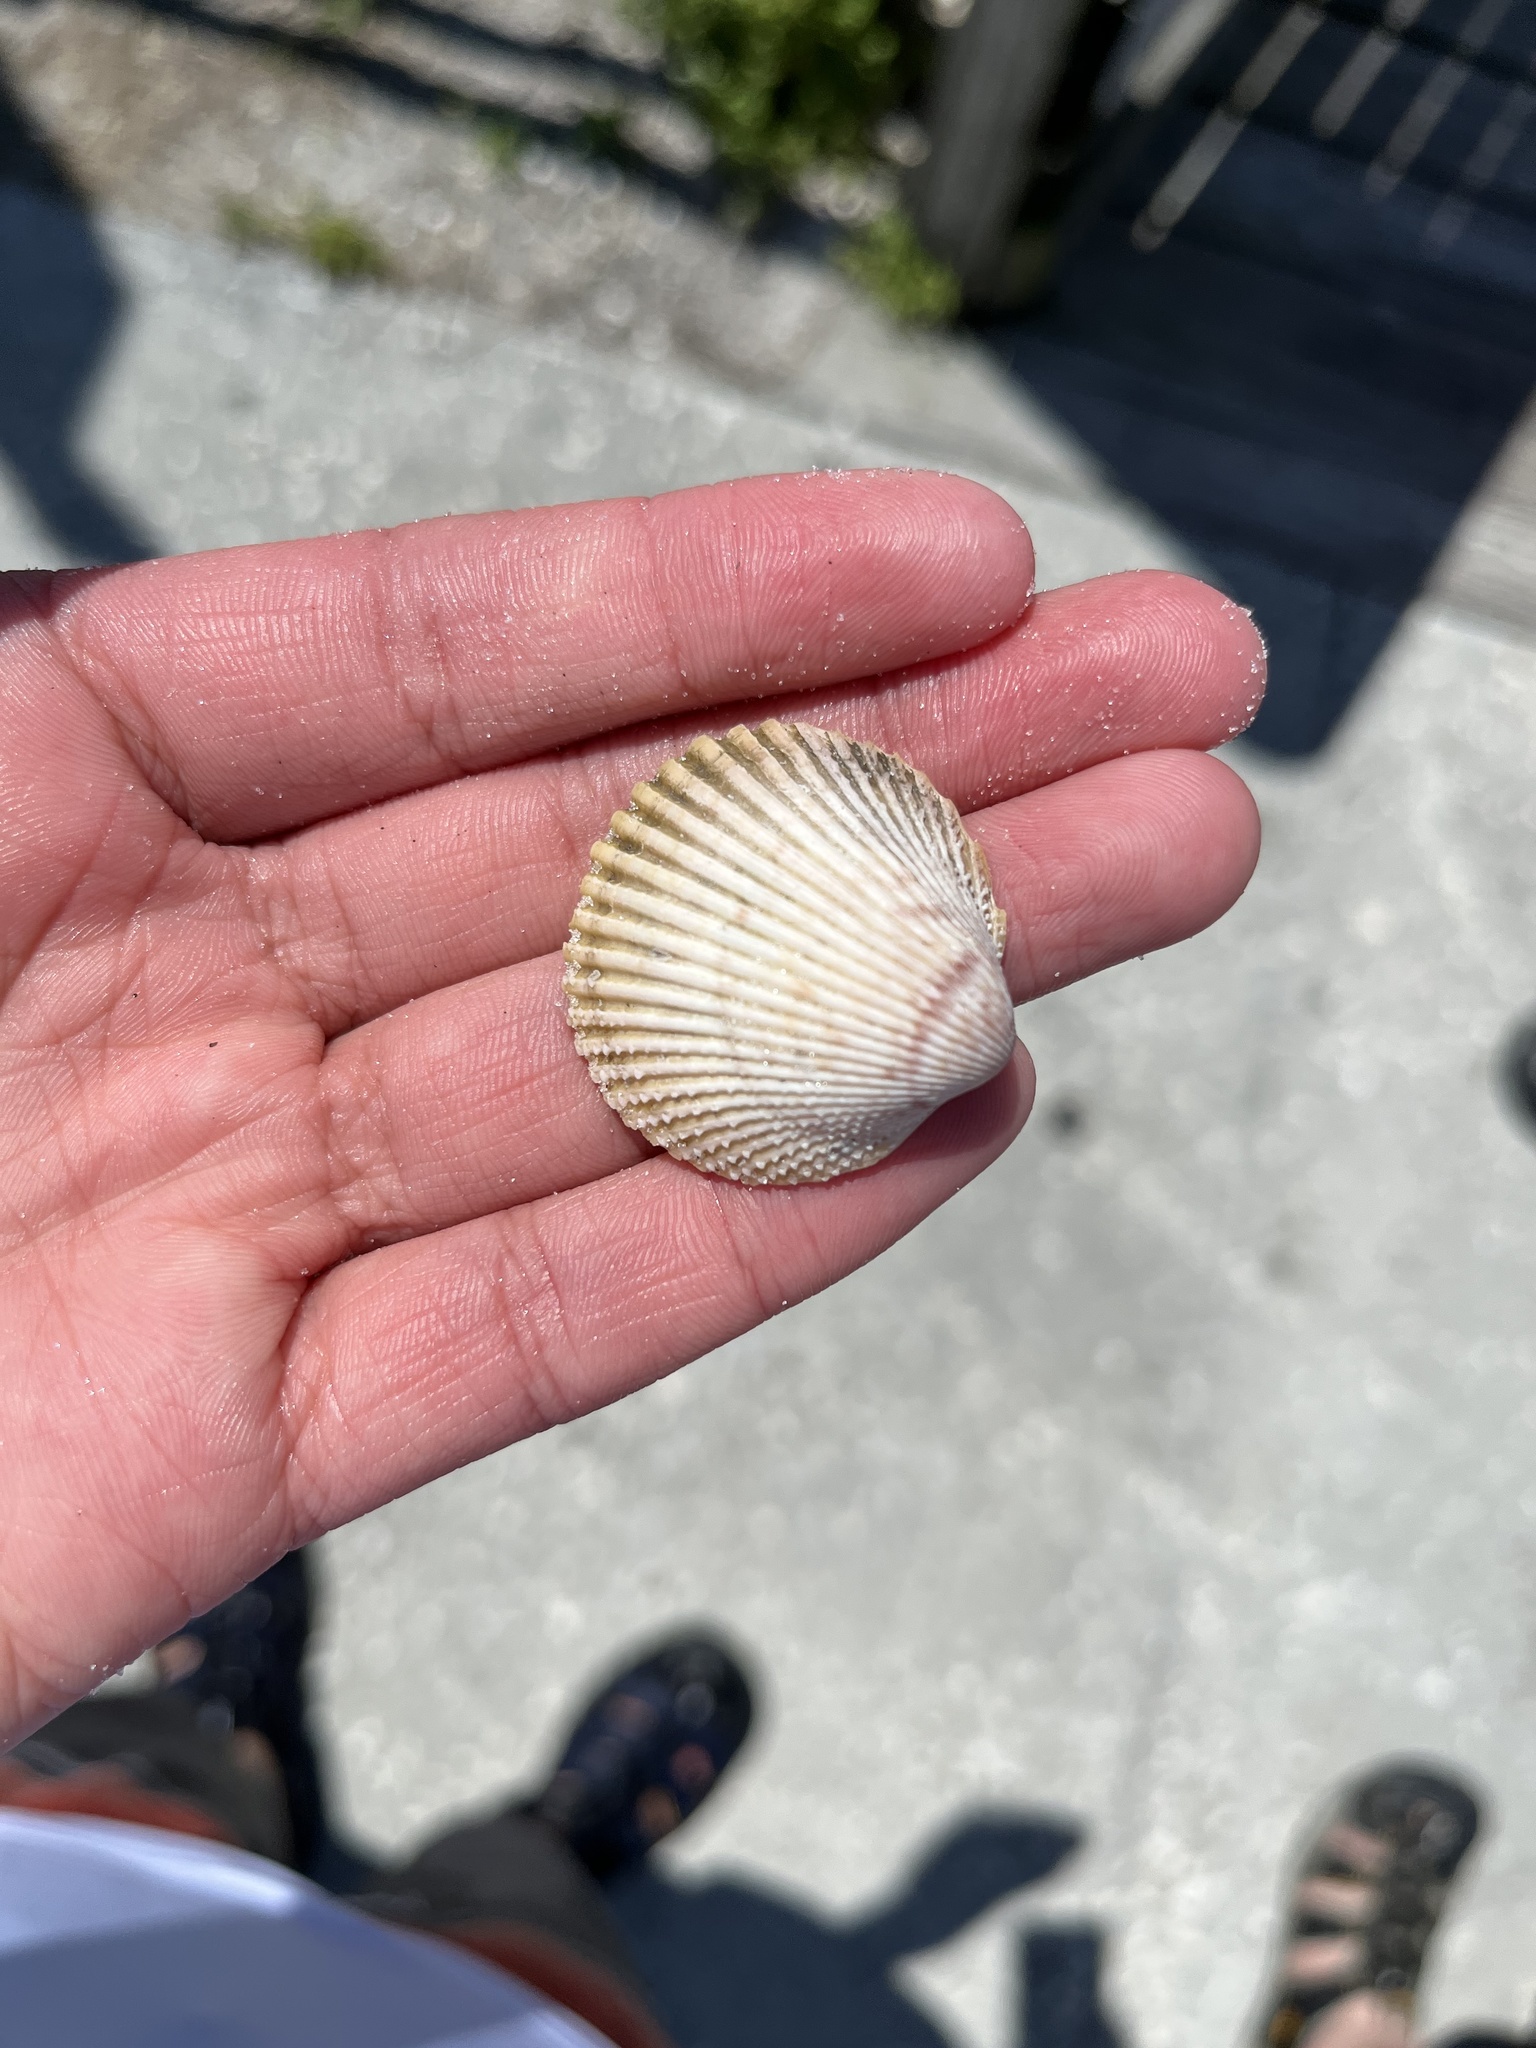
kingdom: Animalia
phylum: Mollusca
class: Bivalvia
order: Cardiida
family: Cardiidae
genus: Dallocardia
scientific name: Dallocardia muricata
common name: Yellow pricklycockle
